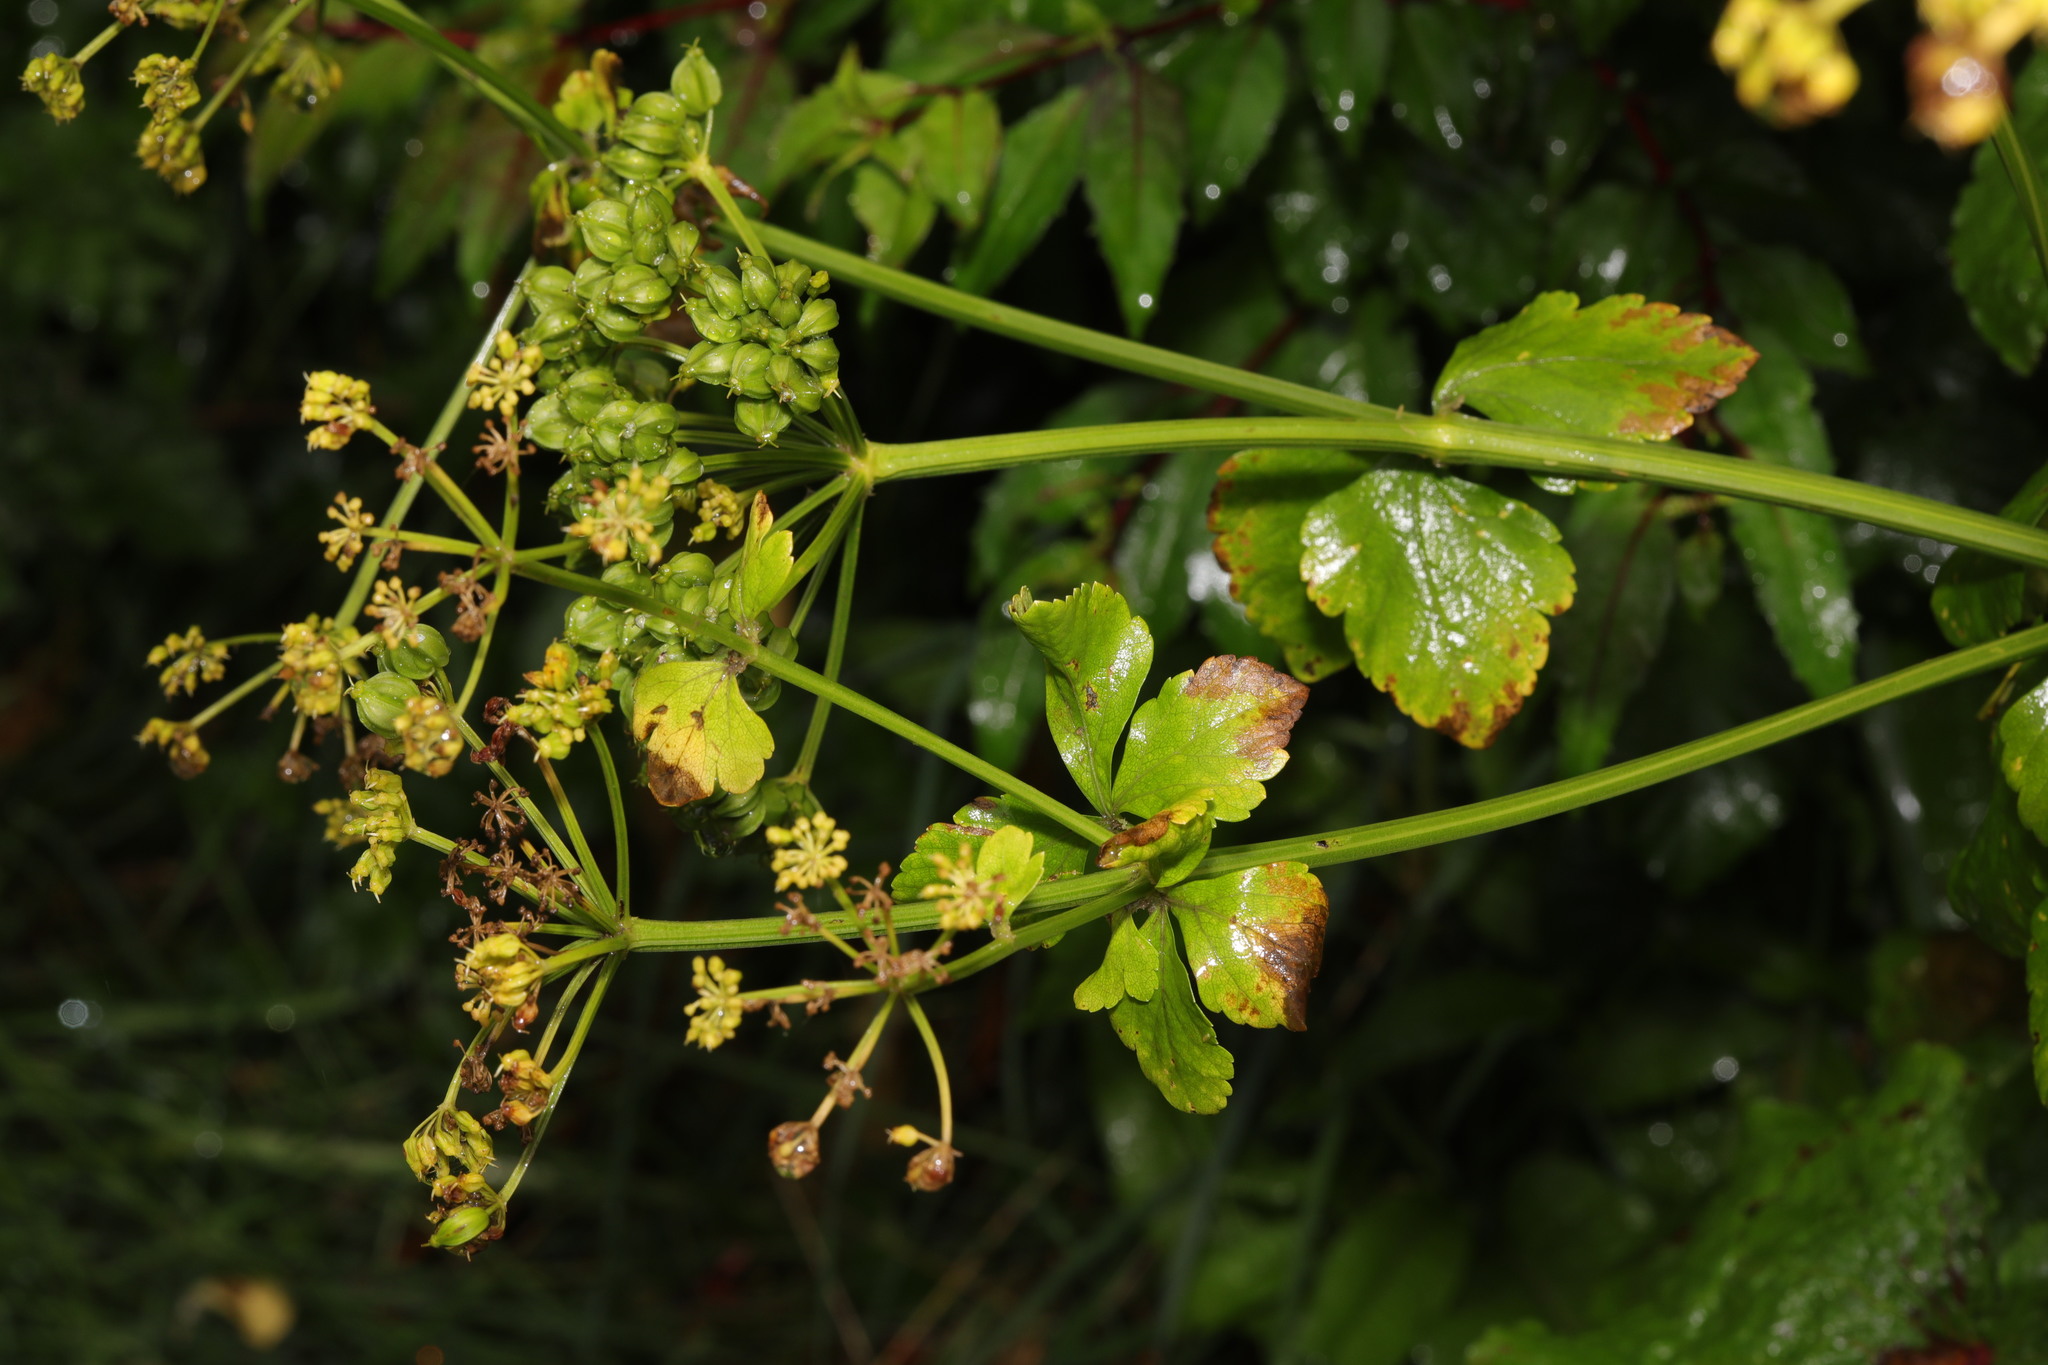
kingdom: Plantae
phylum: Tracheophyta
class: Magnoliopsida
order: Apiales
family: Apiaceae
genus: Smyrnium
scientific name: Smyrnium olusatrum
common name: Alexanders
